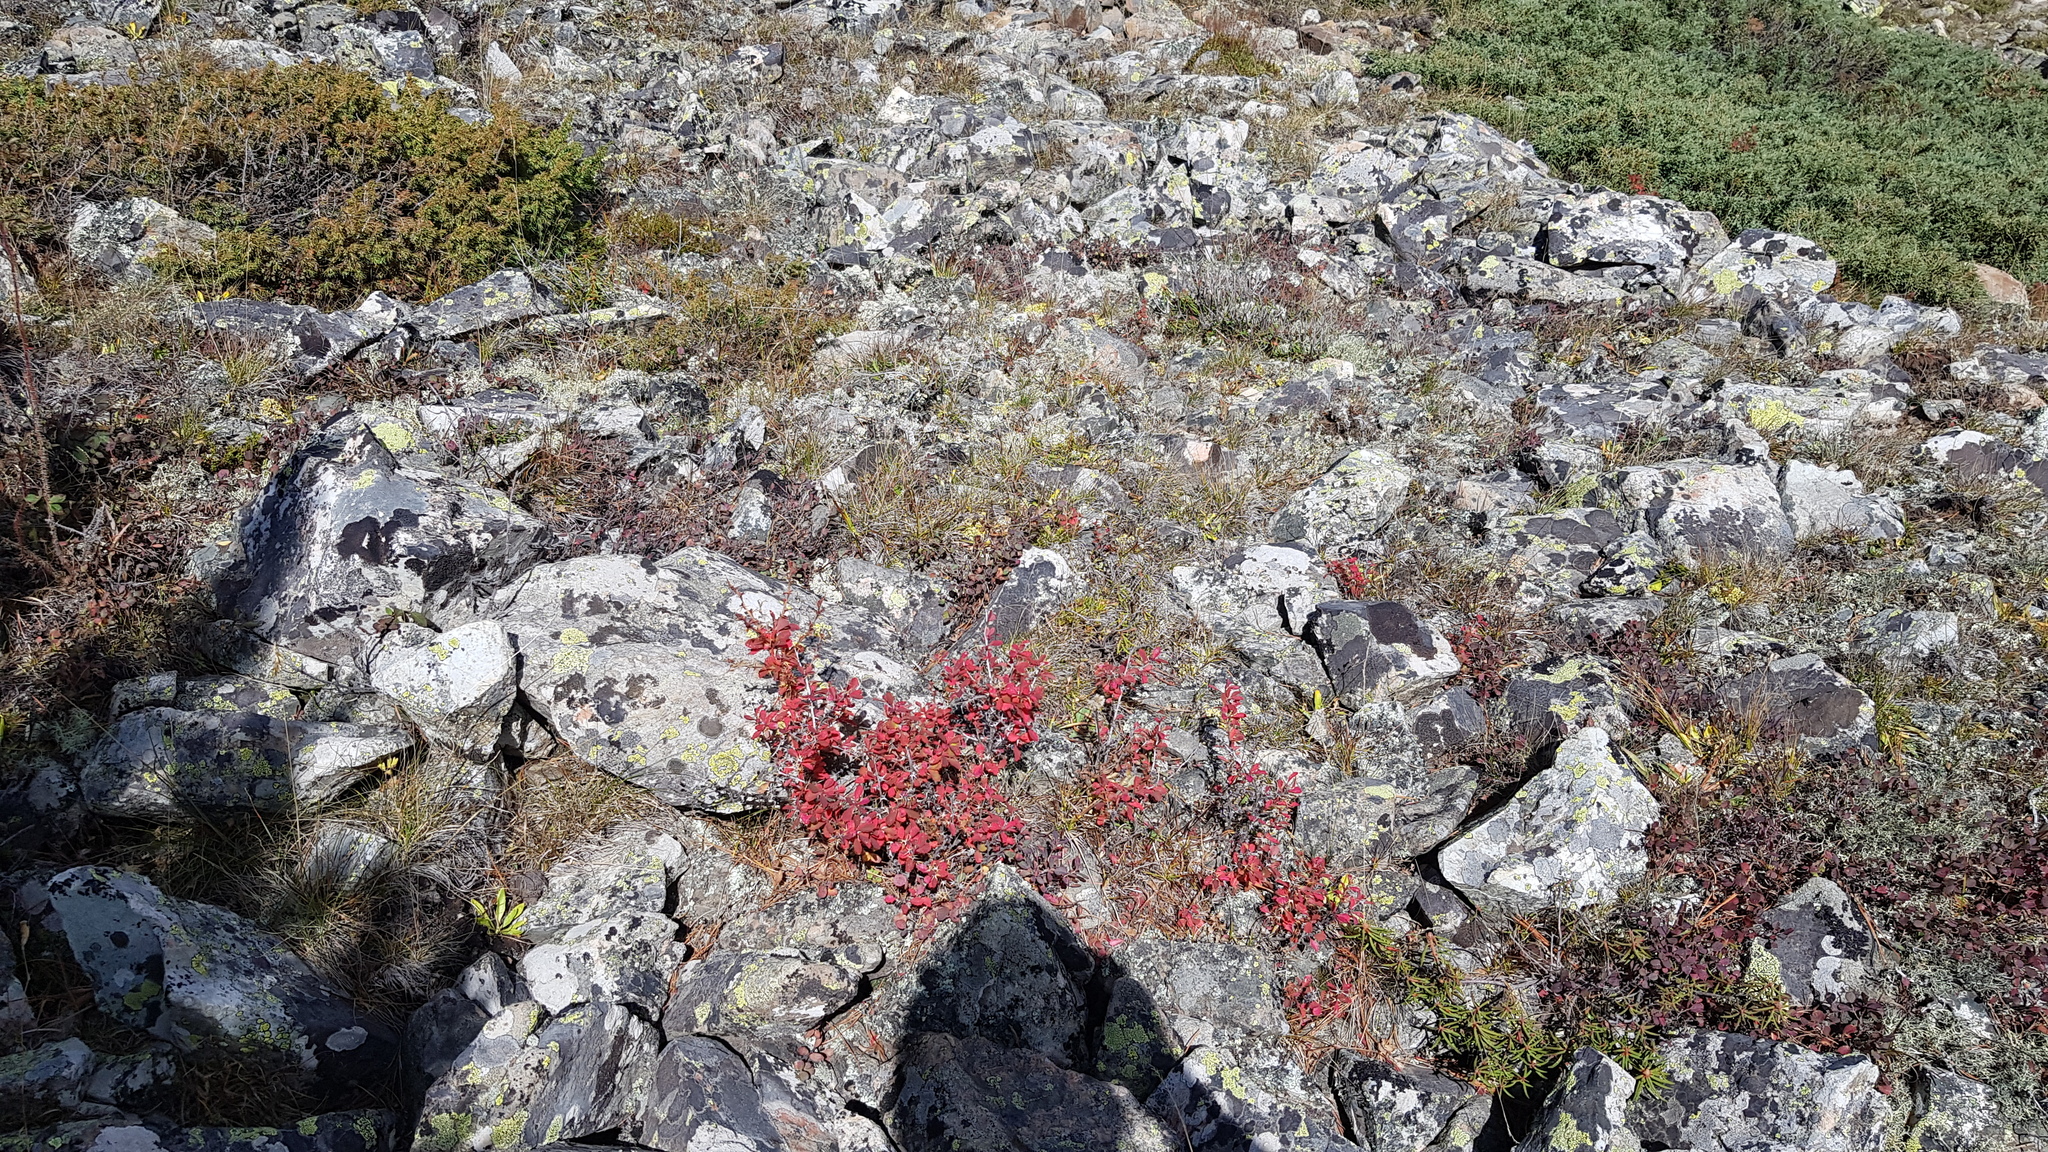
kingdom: Plantae
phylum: Tracheophyta
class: Magnoliopsida
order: Ranunculales
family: Berberidaceae
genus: Berberis
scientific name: Berberis sibirica
